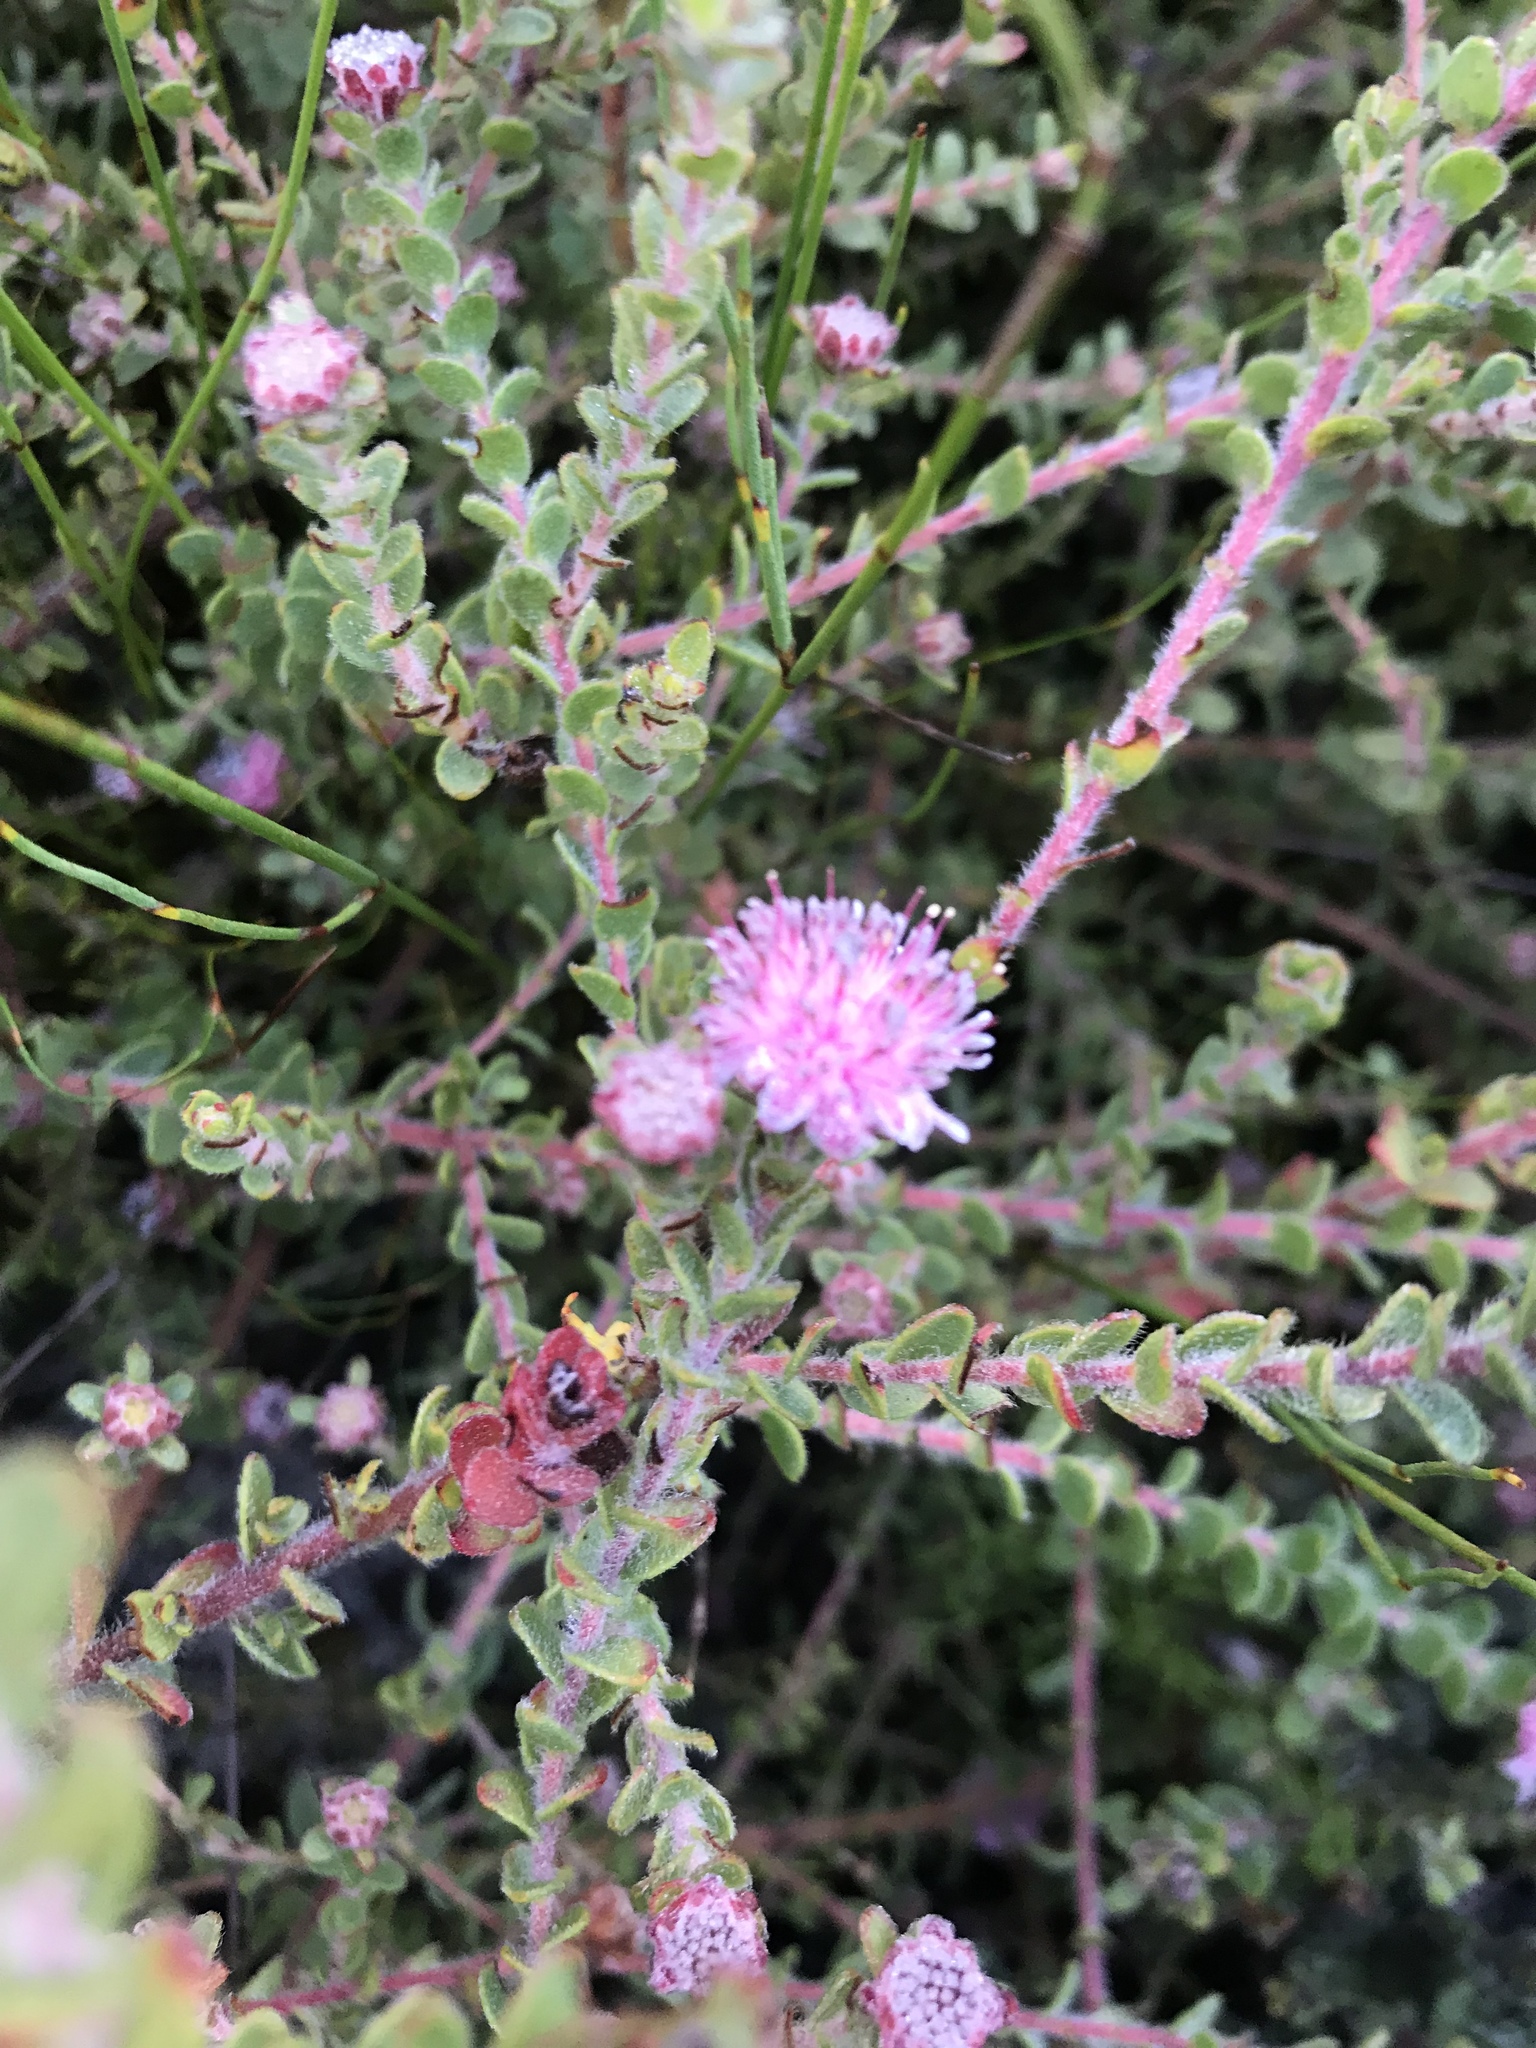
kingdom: Plantae
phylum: Tracheophyta
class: Magnoliopsida
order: Proteales
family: Proteaceae
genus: Diastella
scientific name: Diastella divaricata
